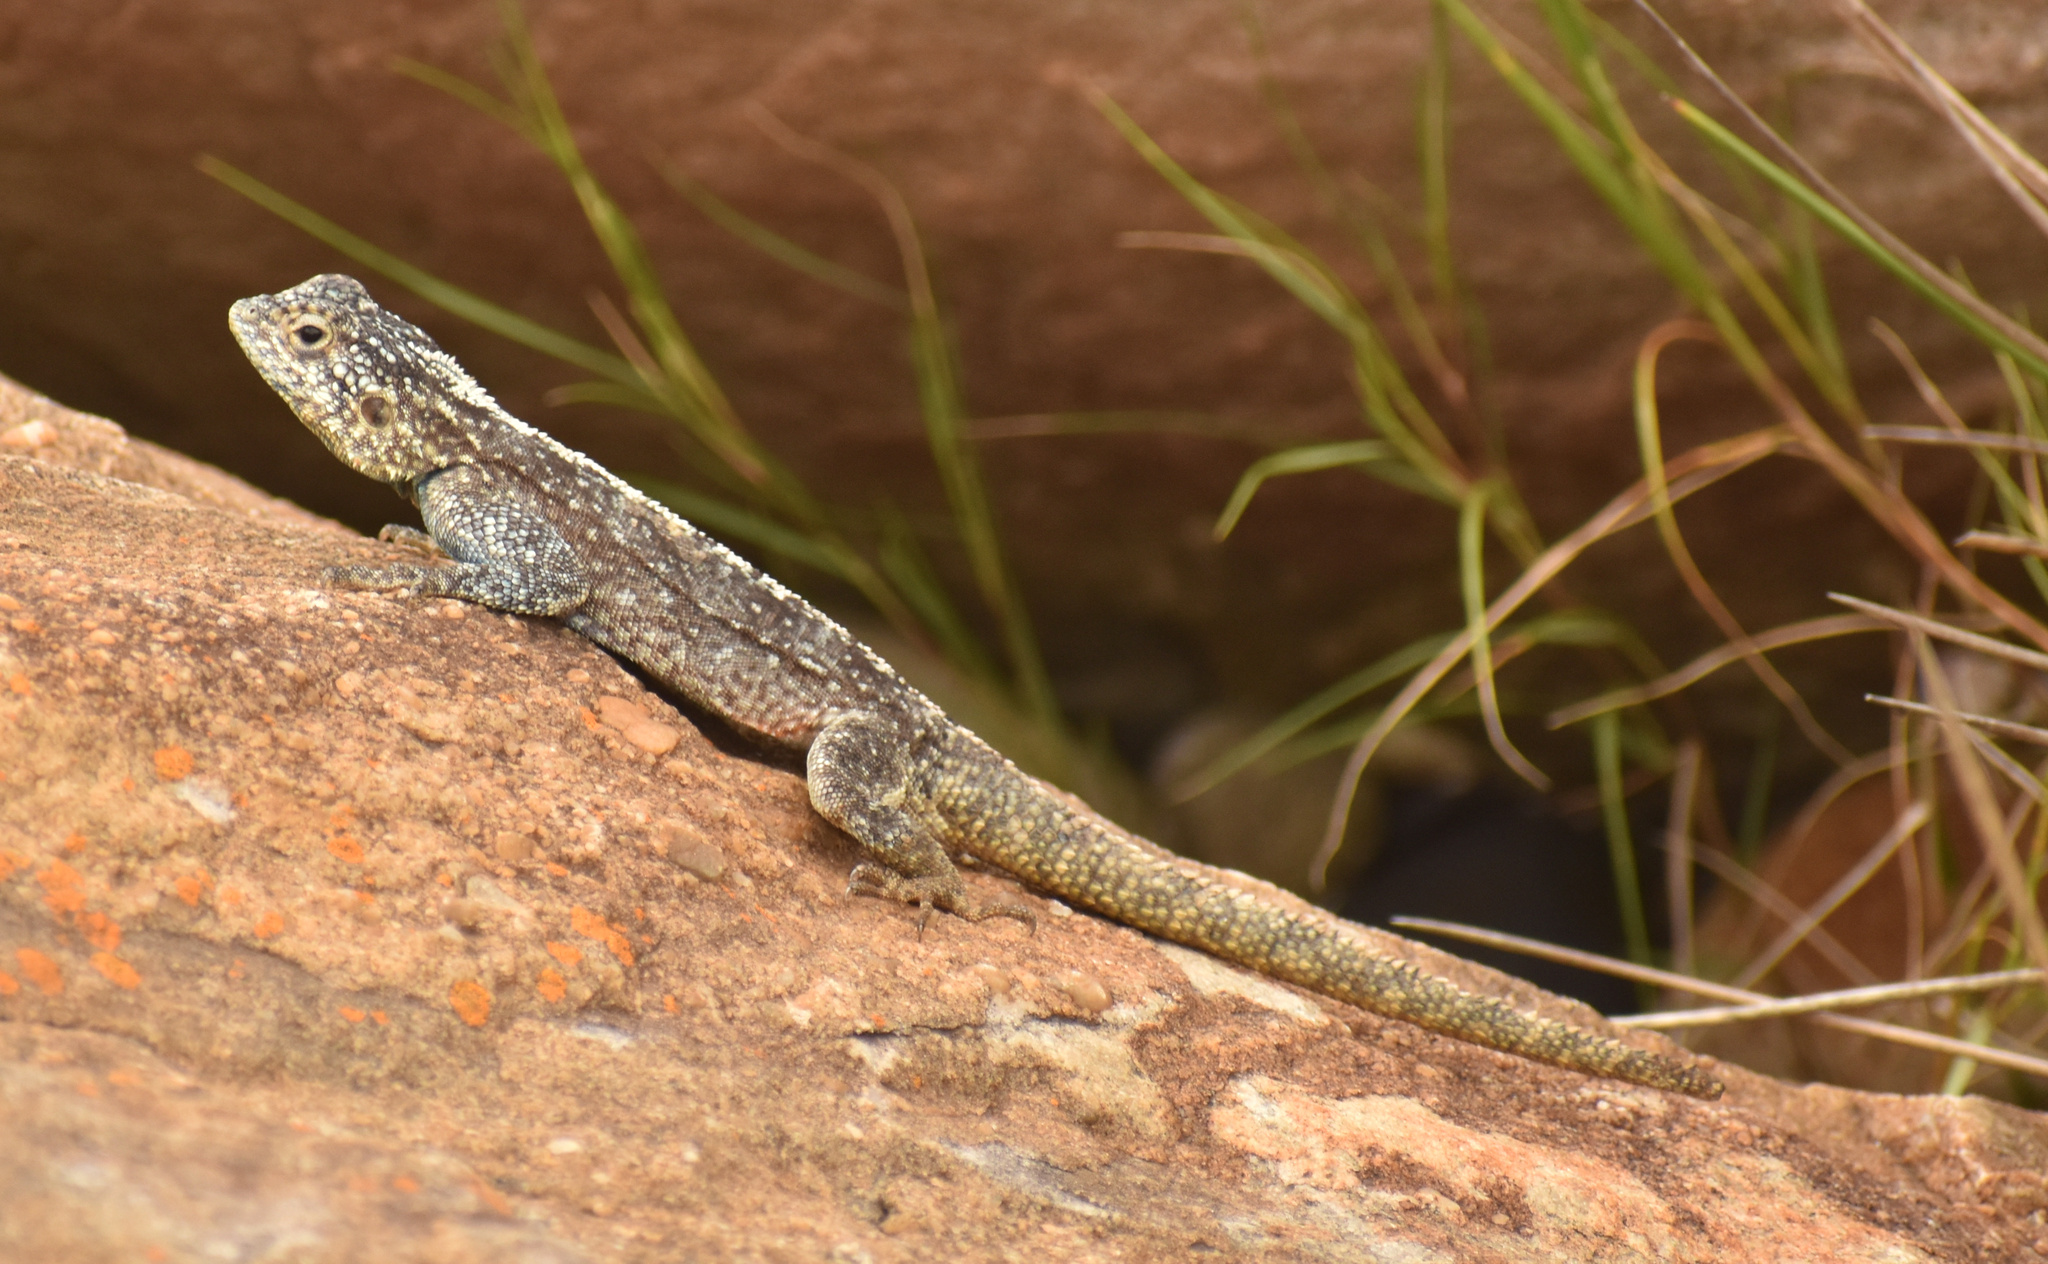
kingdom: Animalia
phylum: Chordata
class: Squamata
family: Agamidae
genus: Agama
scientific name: Agama atra
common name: Southern african rock agama
